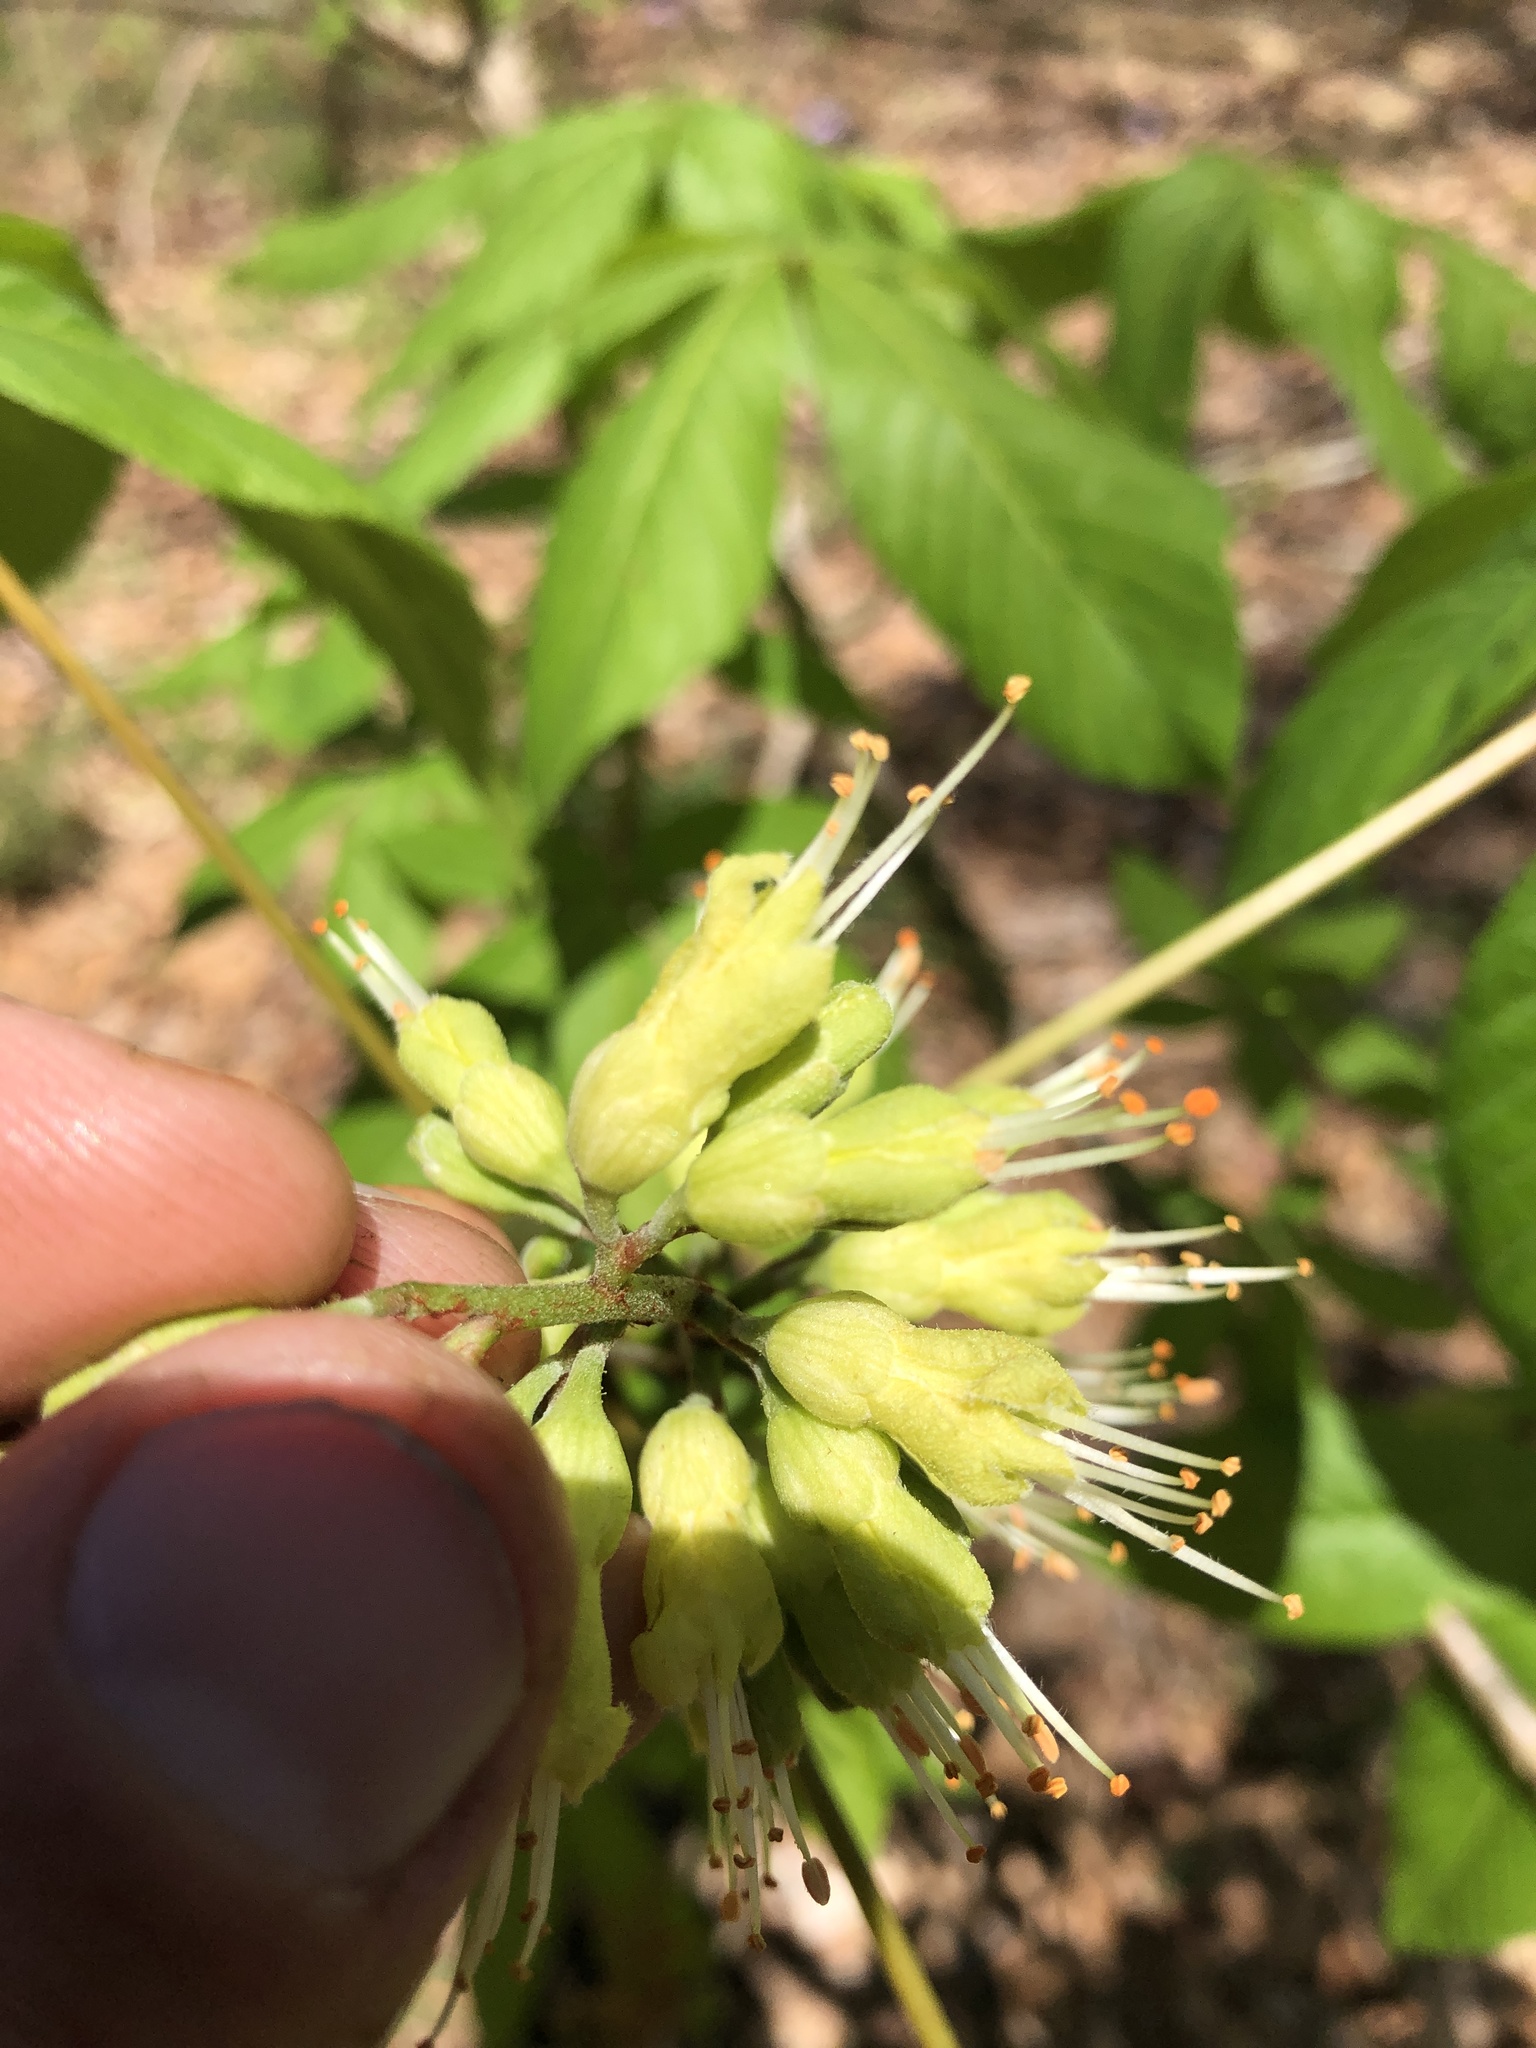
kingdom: Plantae
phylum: Tracheophyta
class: Magnoliopsida
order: Sapindales
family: Sapindaceae
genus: Aesculus
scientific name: Aesculus glabra
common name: Ohio buckeye
